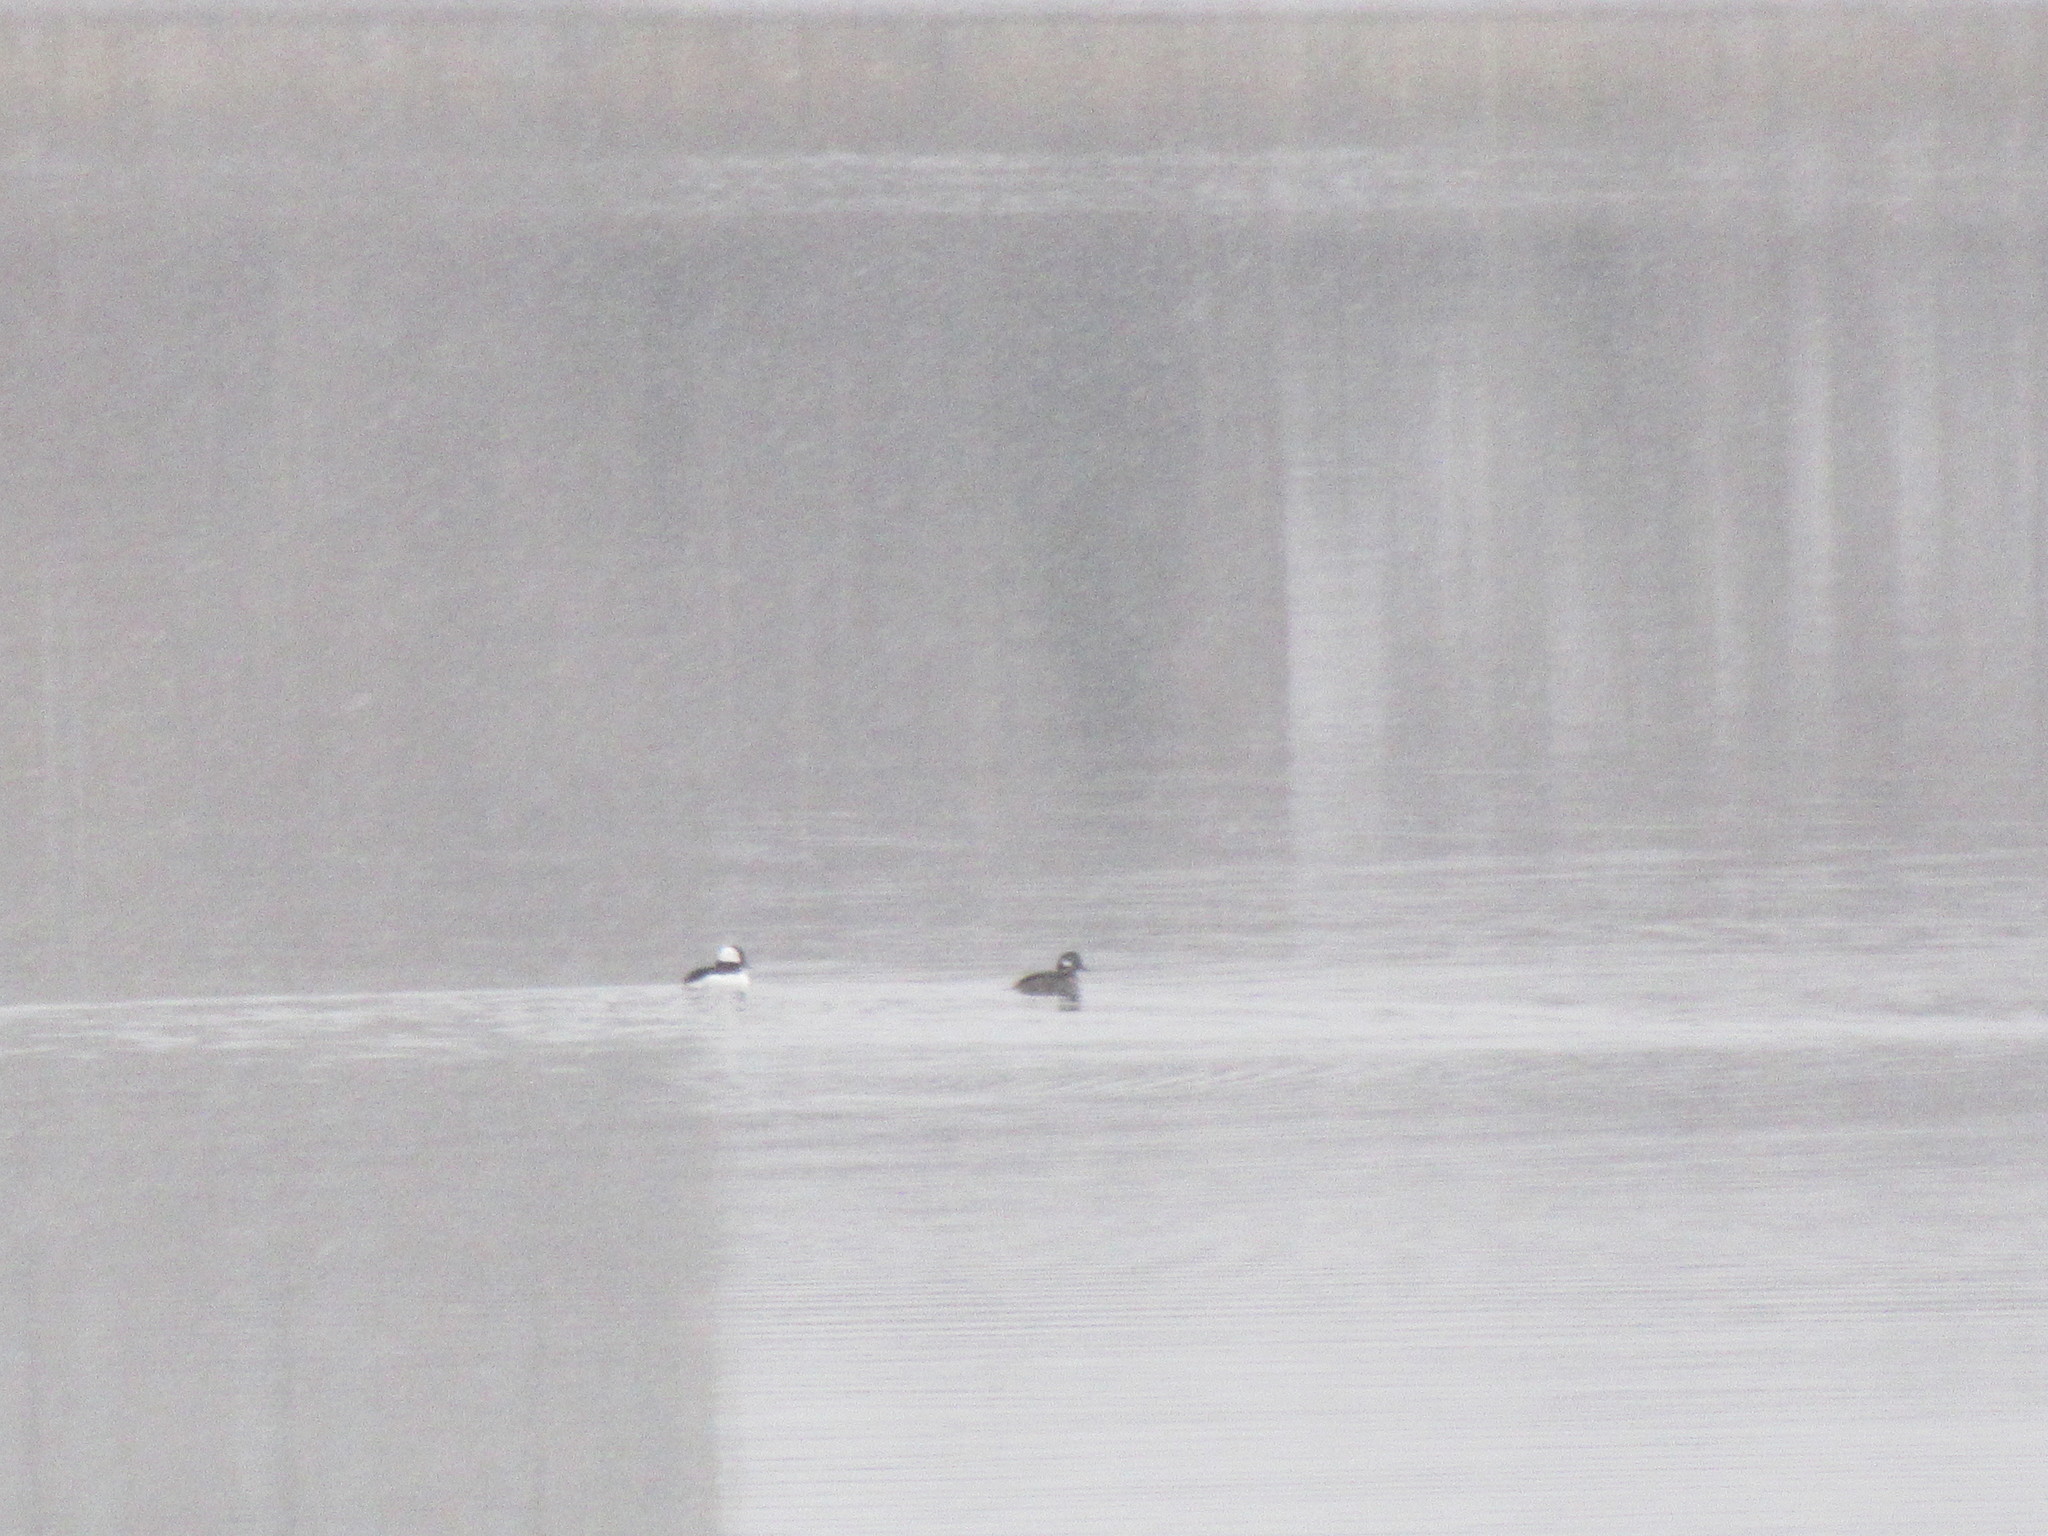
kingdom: Animalia
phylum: Chordata
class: Aves
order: Anseriformes
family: Anatidae
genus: Bucephala
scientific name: Bucephala albeola
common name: Bufflehead
